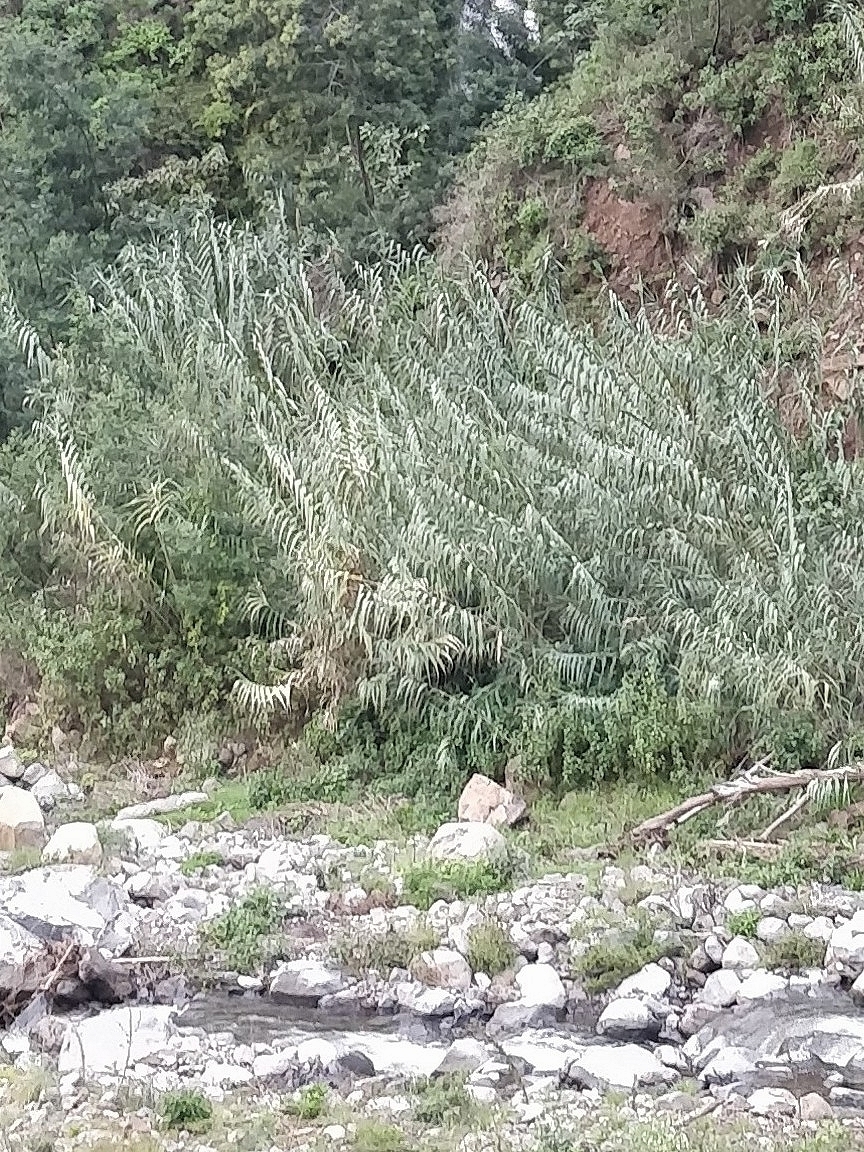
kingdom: Plantae
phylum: Tracheophyta
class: Liliopsida
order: Poales
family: Poaceae
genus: Arundo
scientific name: Arundo donax
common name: Giant reed
